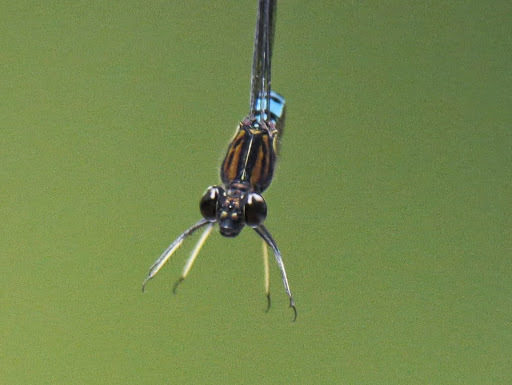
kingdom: Animalia
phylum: Arthropoda
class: Insecta
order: Odonata
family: Chlorocyphidae
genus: Chlorocypha
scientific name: Chlorocypha aphrodite
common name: Blue jewel
